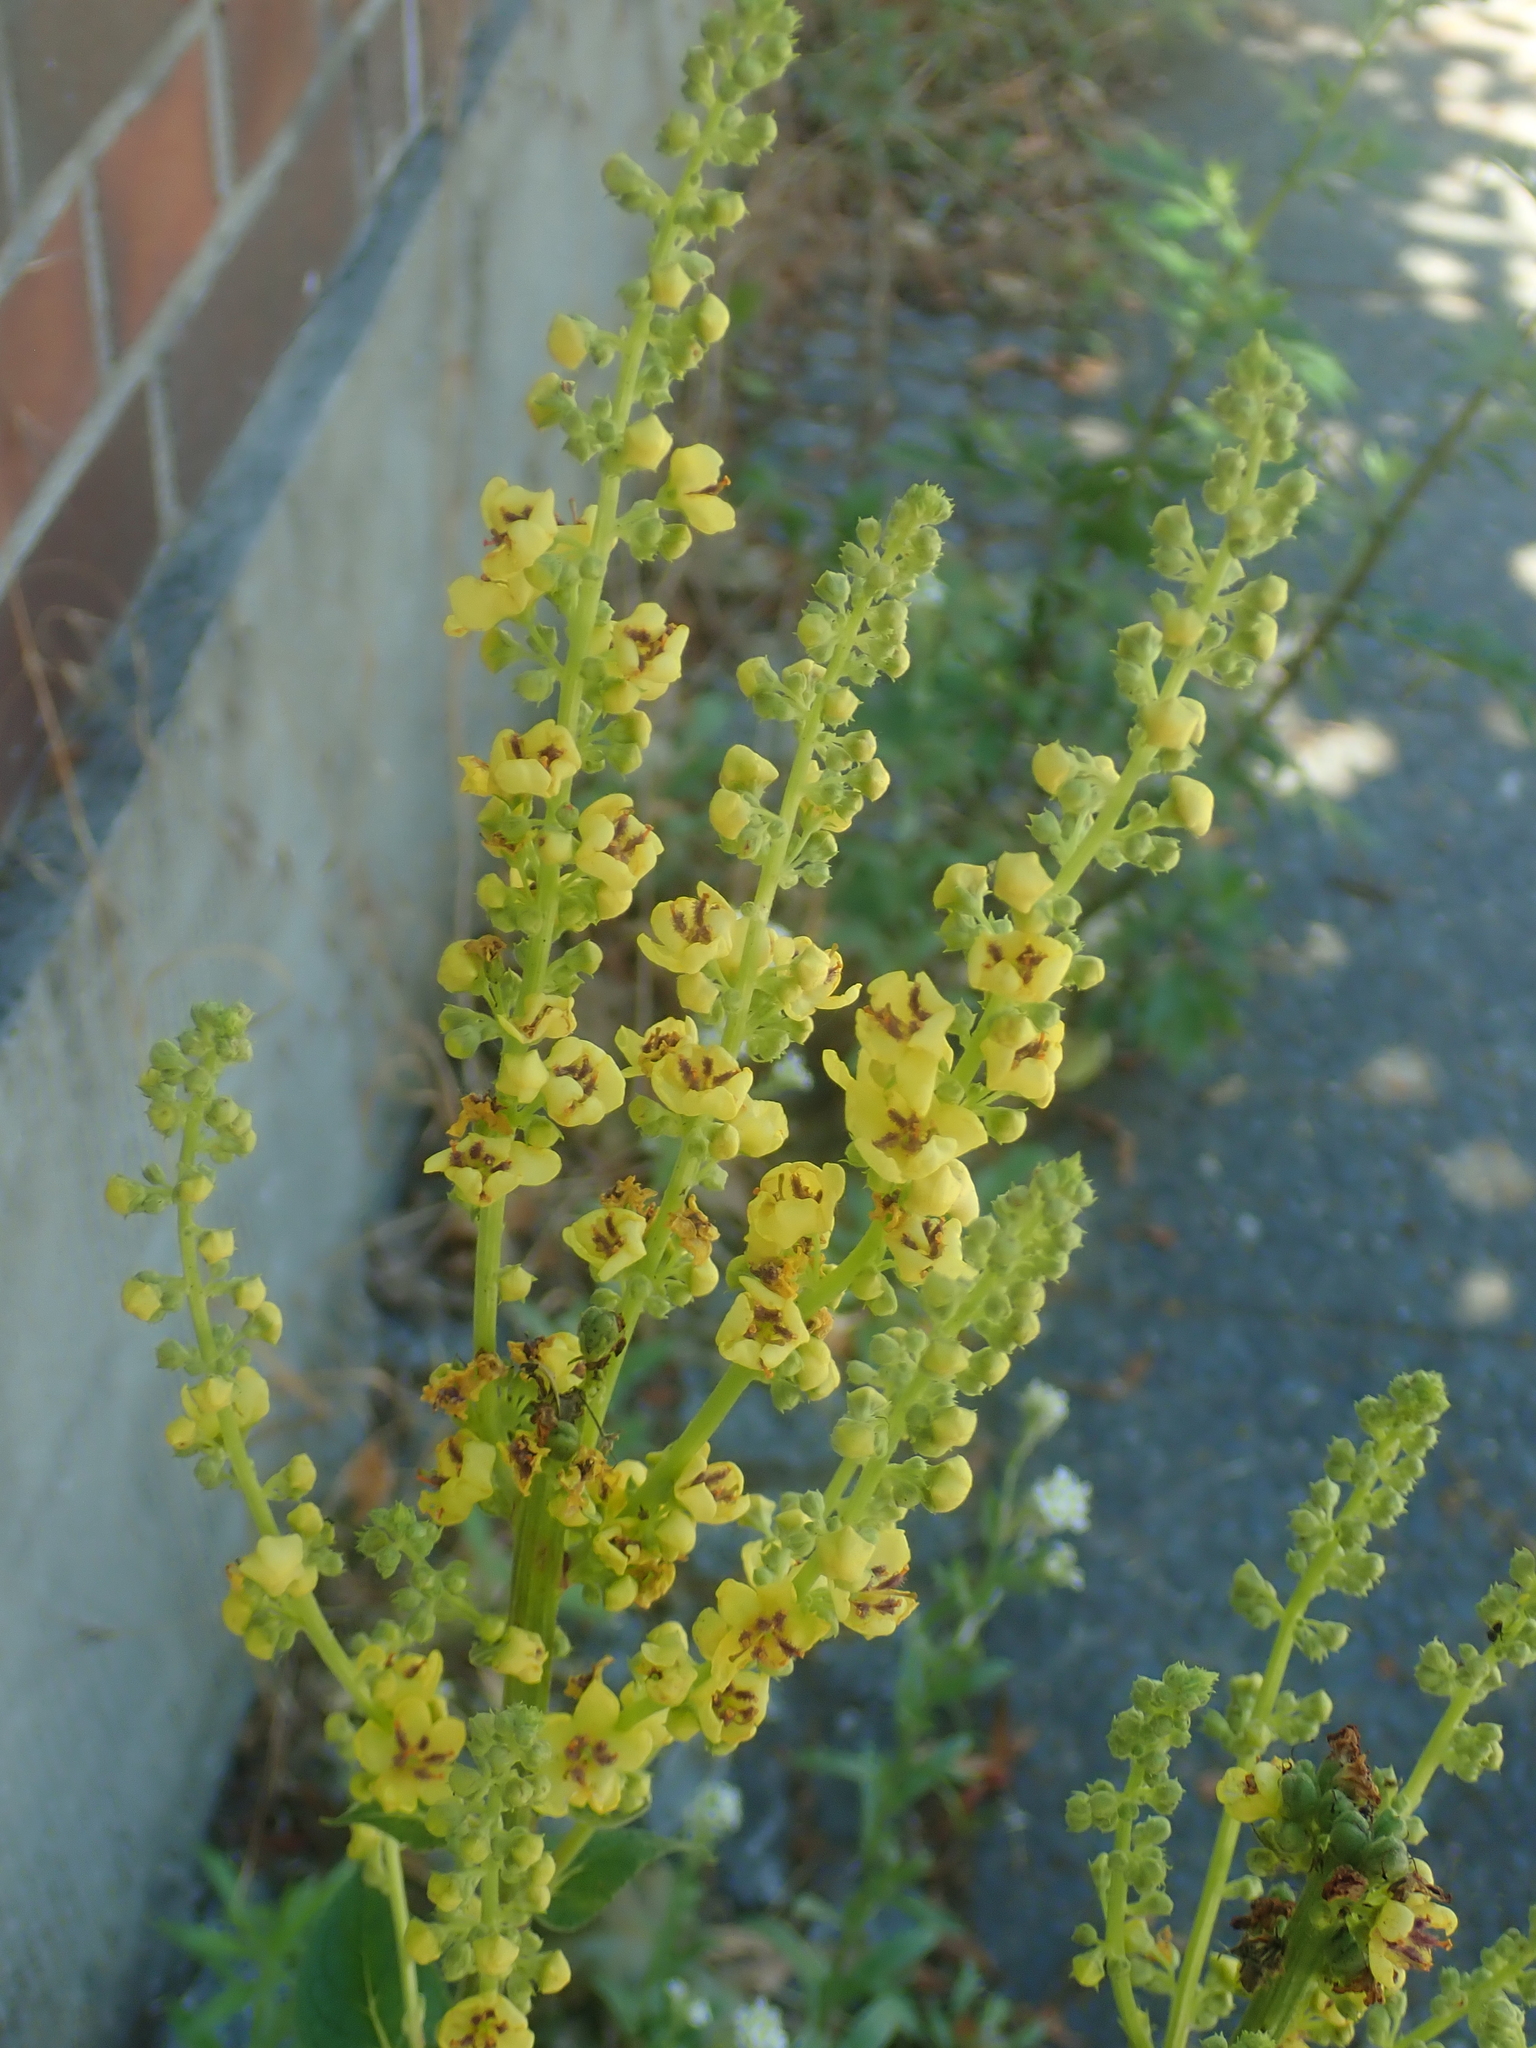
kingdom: Plantae
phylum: Tracheophyta
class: Magnoliopsida
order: Lamiales
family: Scrophulariaceae
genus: Verbascum
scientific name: Verbascum nigrum
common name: Dark mullein
